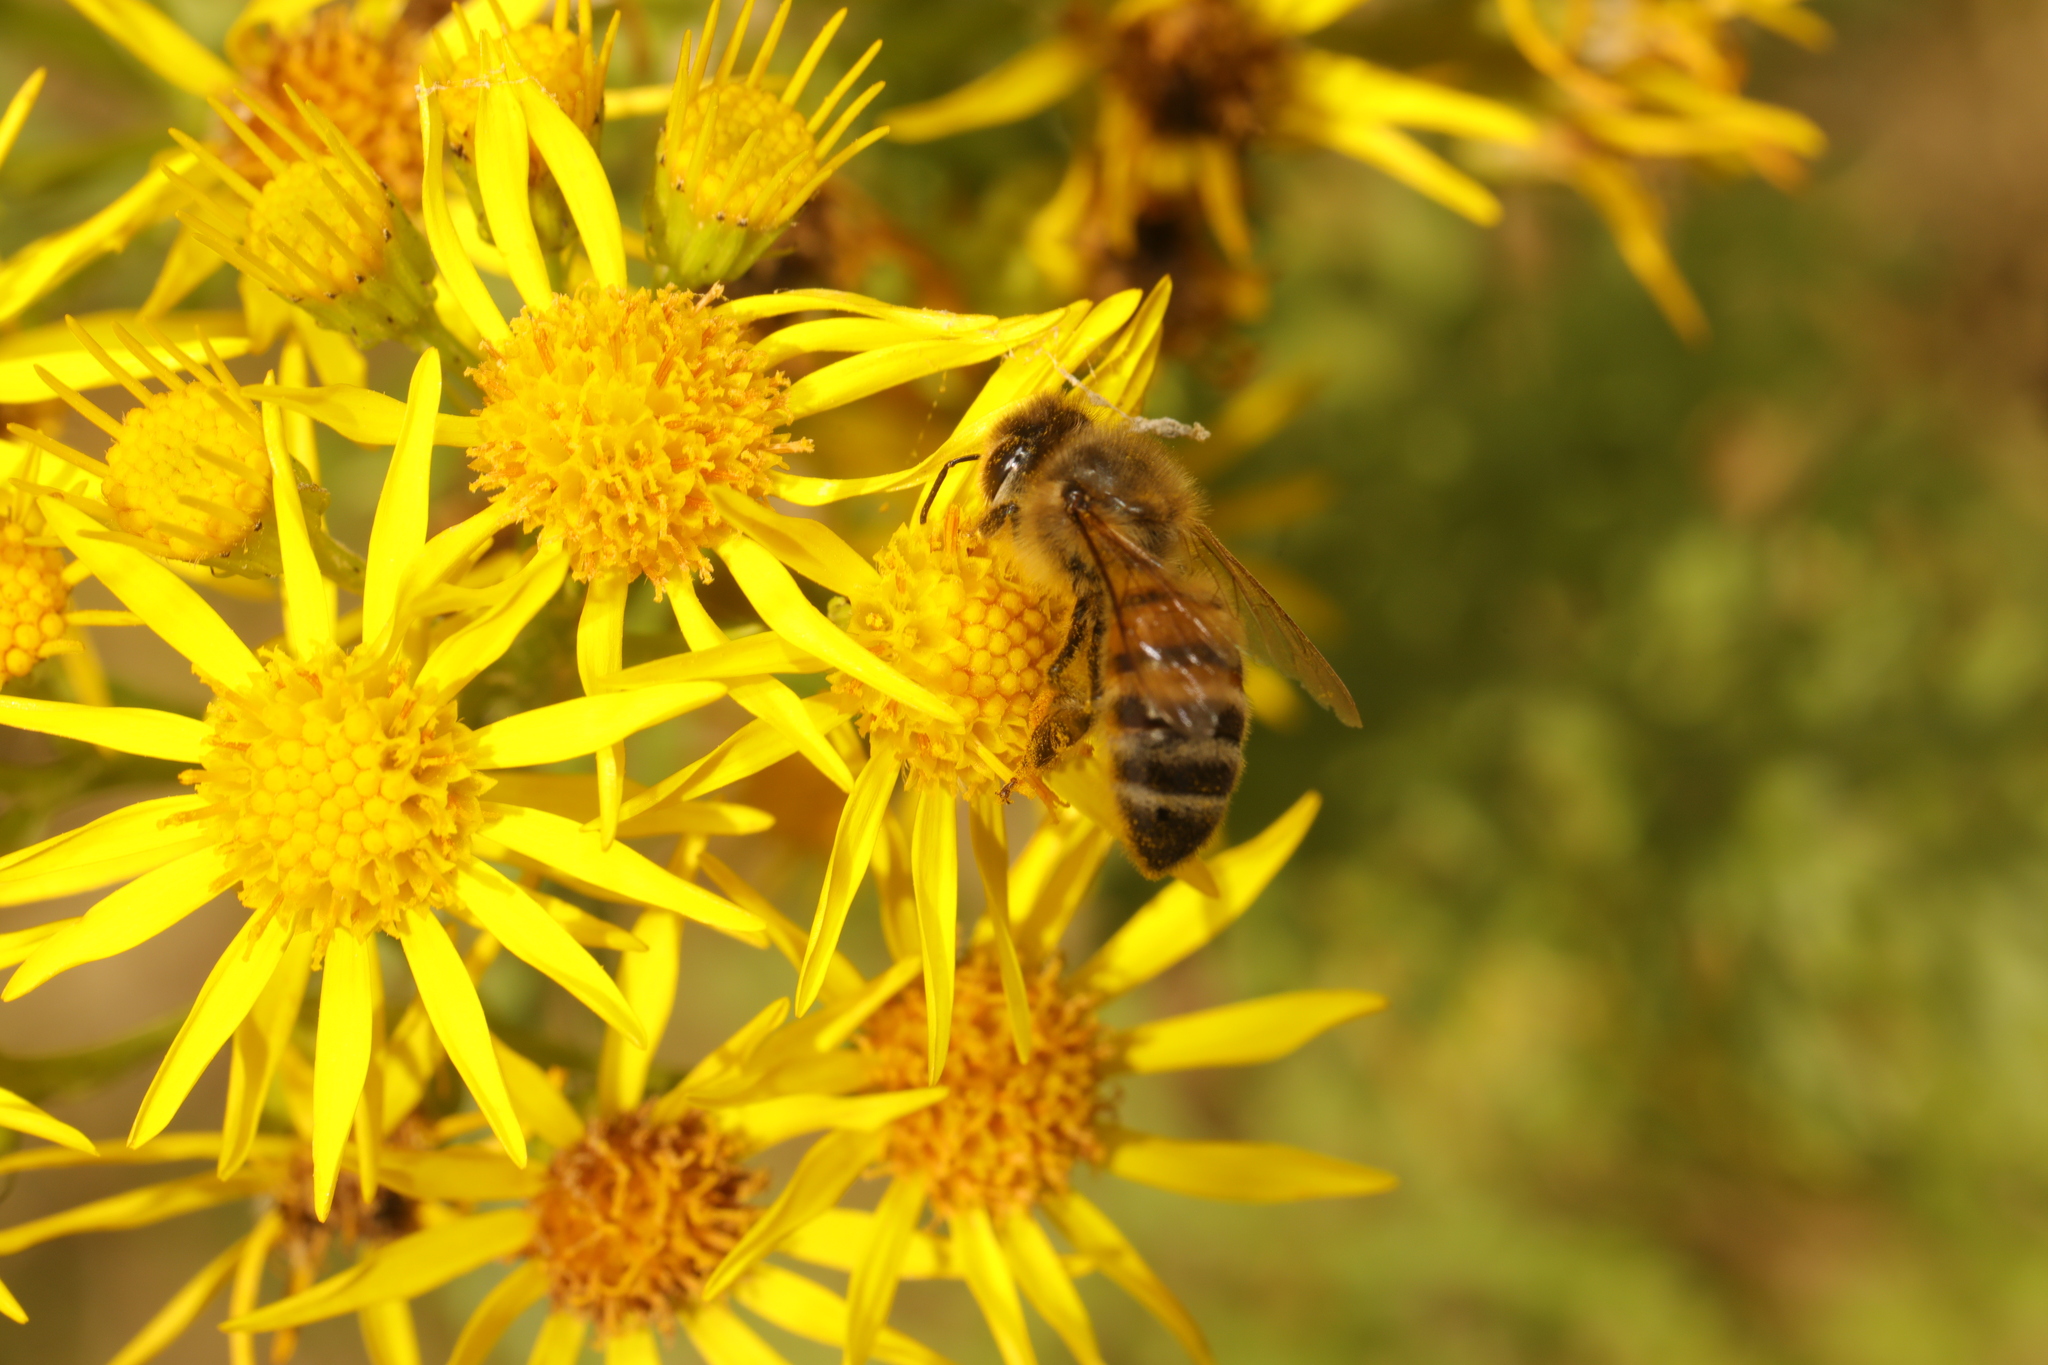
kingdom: Animalia
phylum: Arthropoda
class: Insecta
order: Hymenoptera
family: Apidae
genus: Apis
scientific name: Apis mellifera
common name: Honey bee
